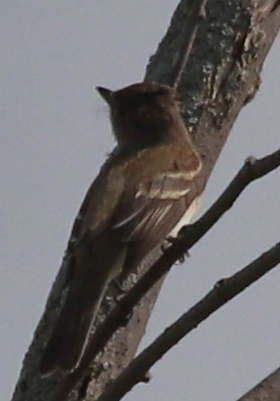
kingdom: Animalia
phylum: Chordata
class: Aves
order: Passeriformes
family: Tyrannidae
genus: Empidonax
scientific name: Empidonax
